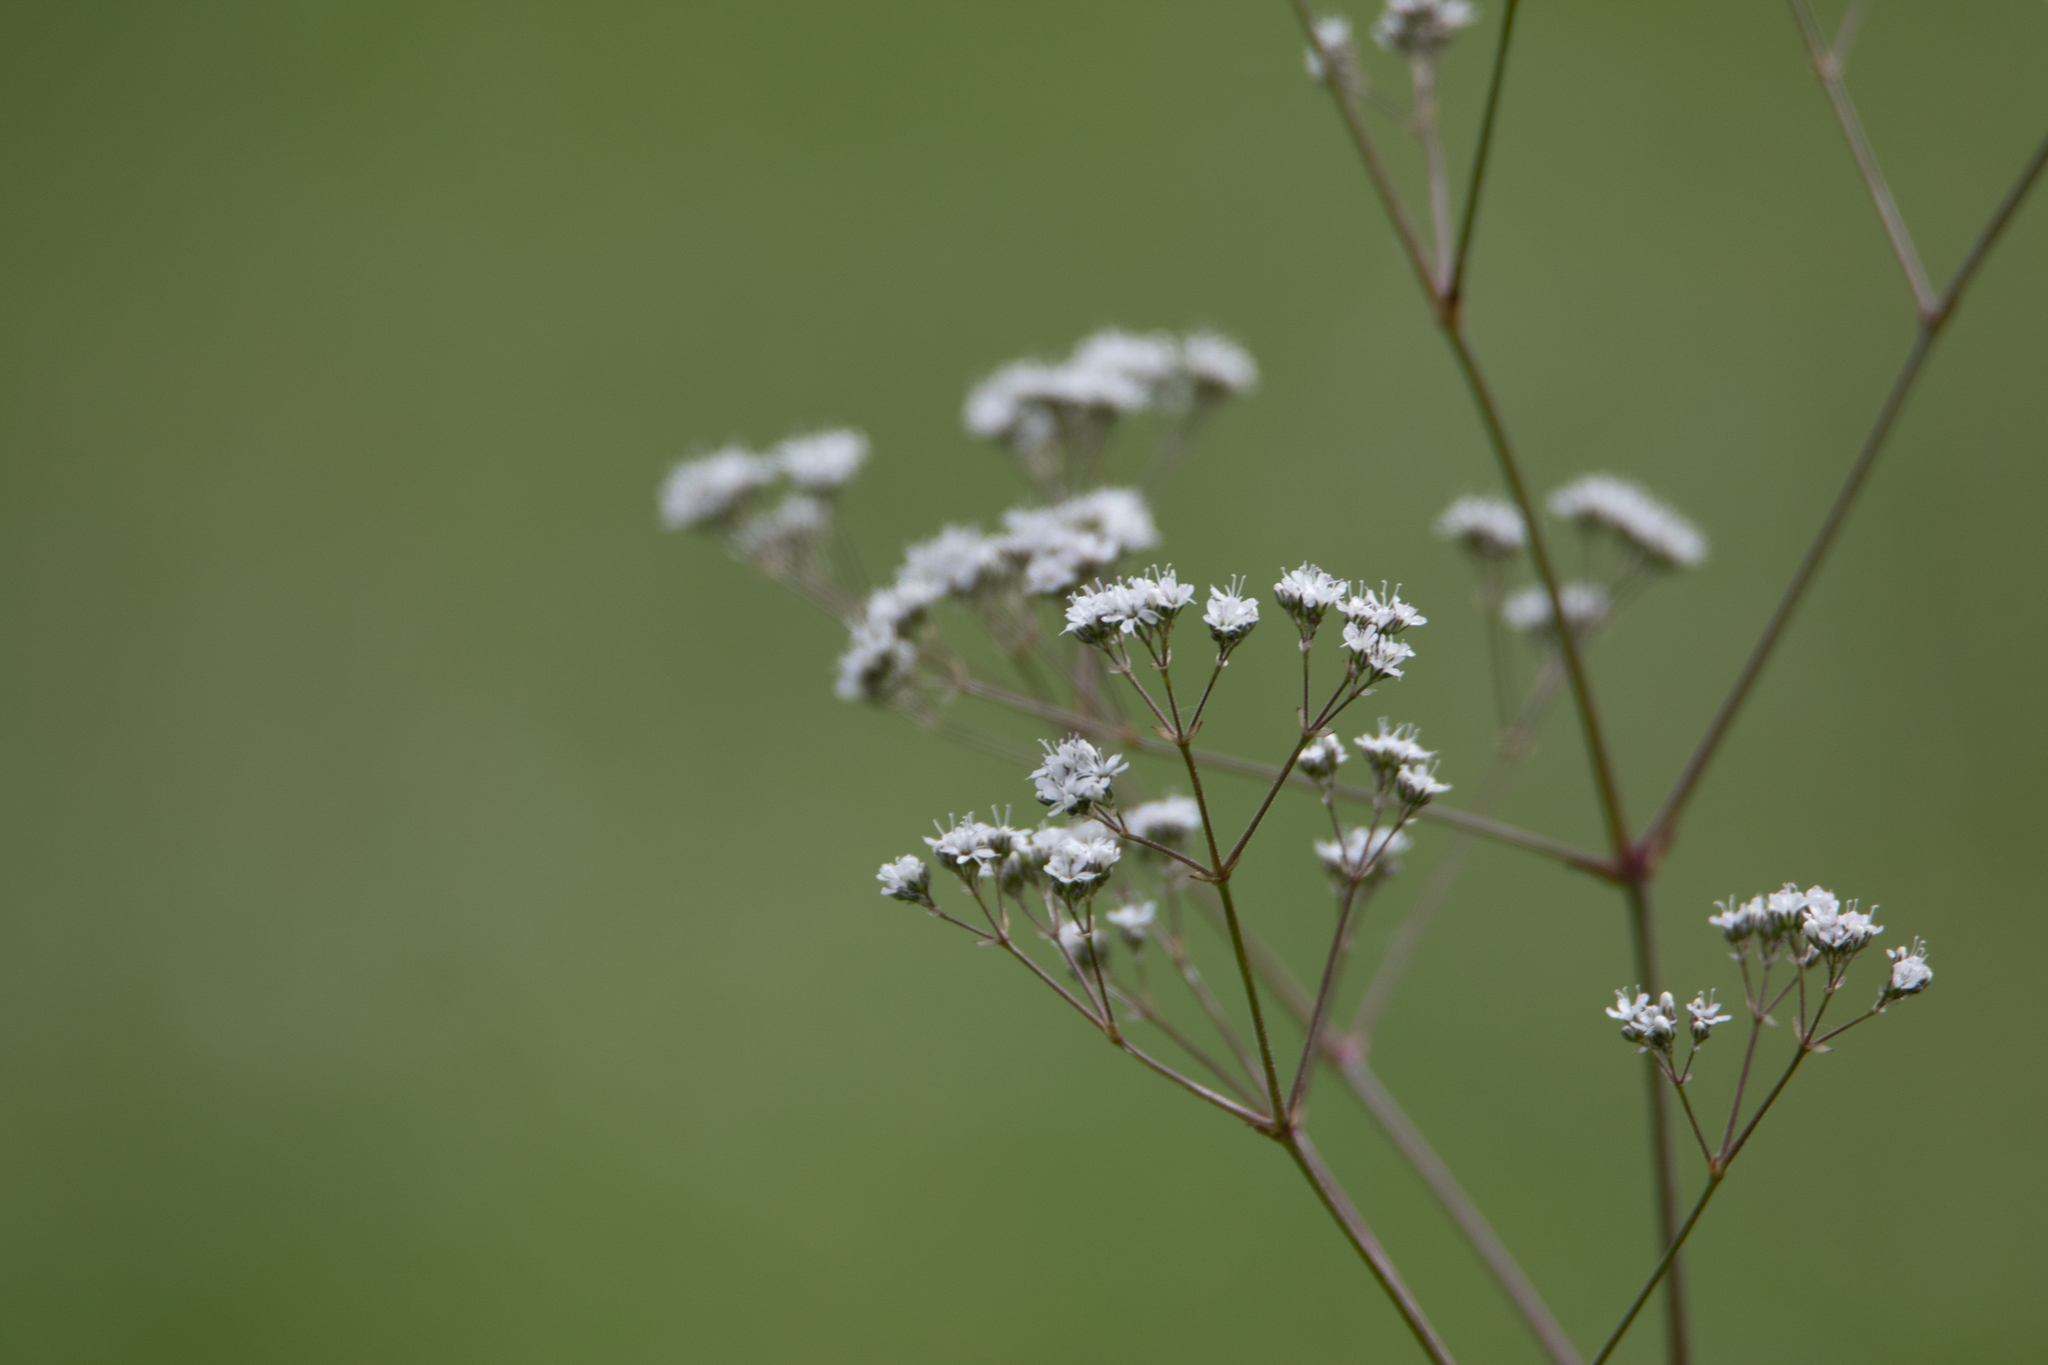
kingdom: Plantae
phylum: Tracheophyta
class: Magnoliopsida
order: Caryophyllales
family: Caryophyllaceae
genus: Gypsophila
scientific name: Gypsophila altissima
